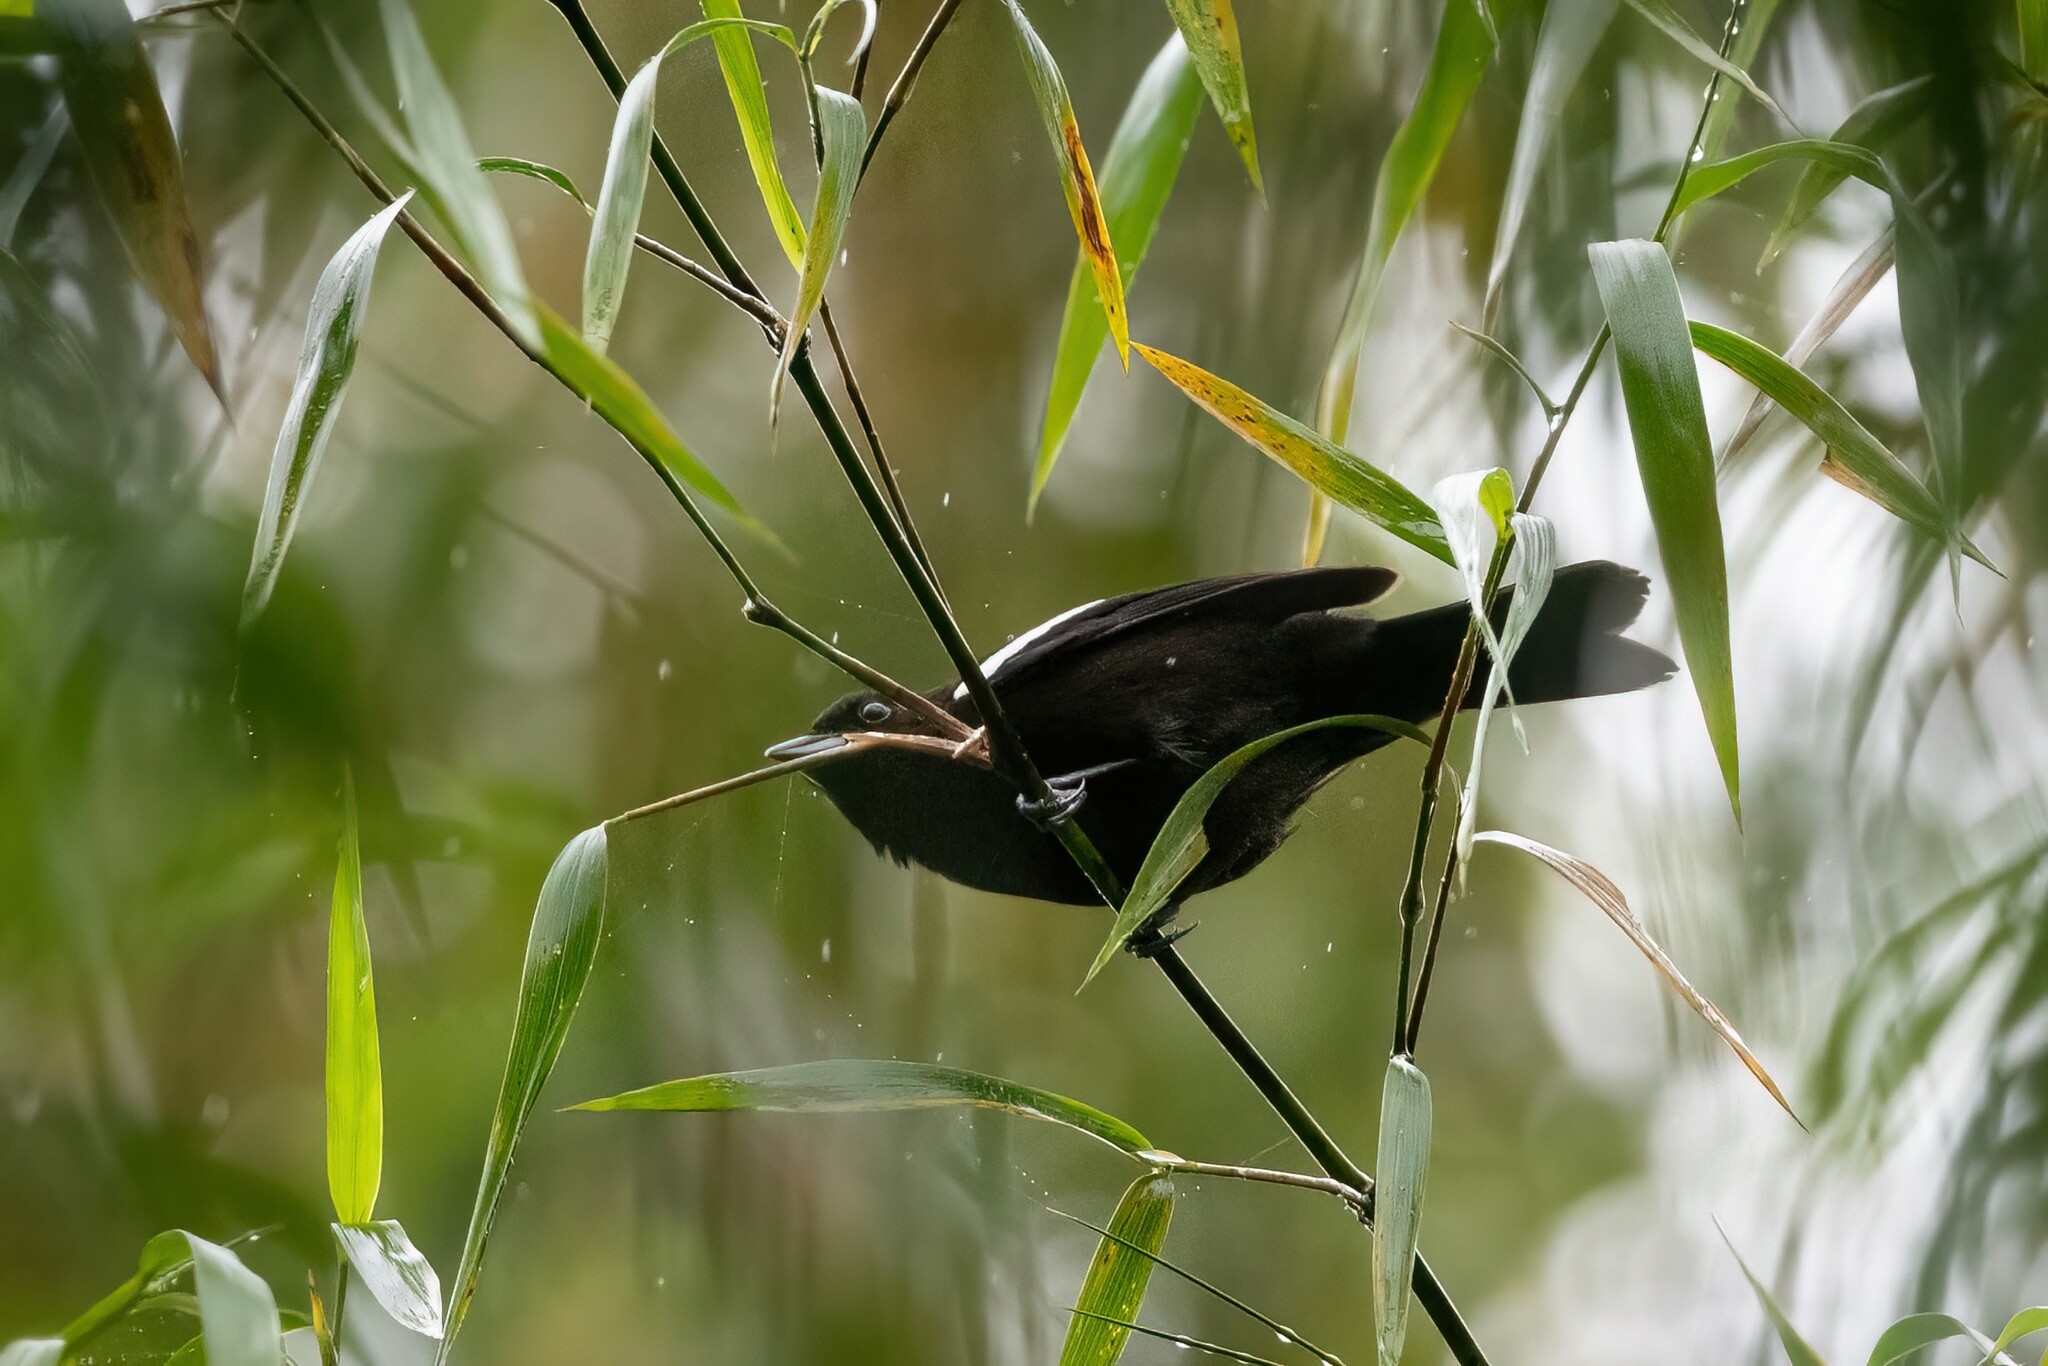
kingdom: Animalia
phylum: Chordata
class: Aves
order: Passeriformes
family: Thraupidae
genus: Loriotus
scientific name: Loriotus luctuosus
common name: White-shouldered tanager
